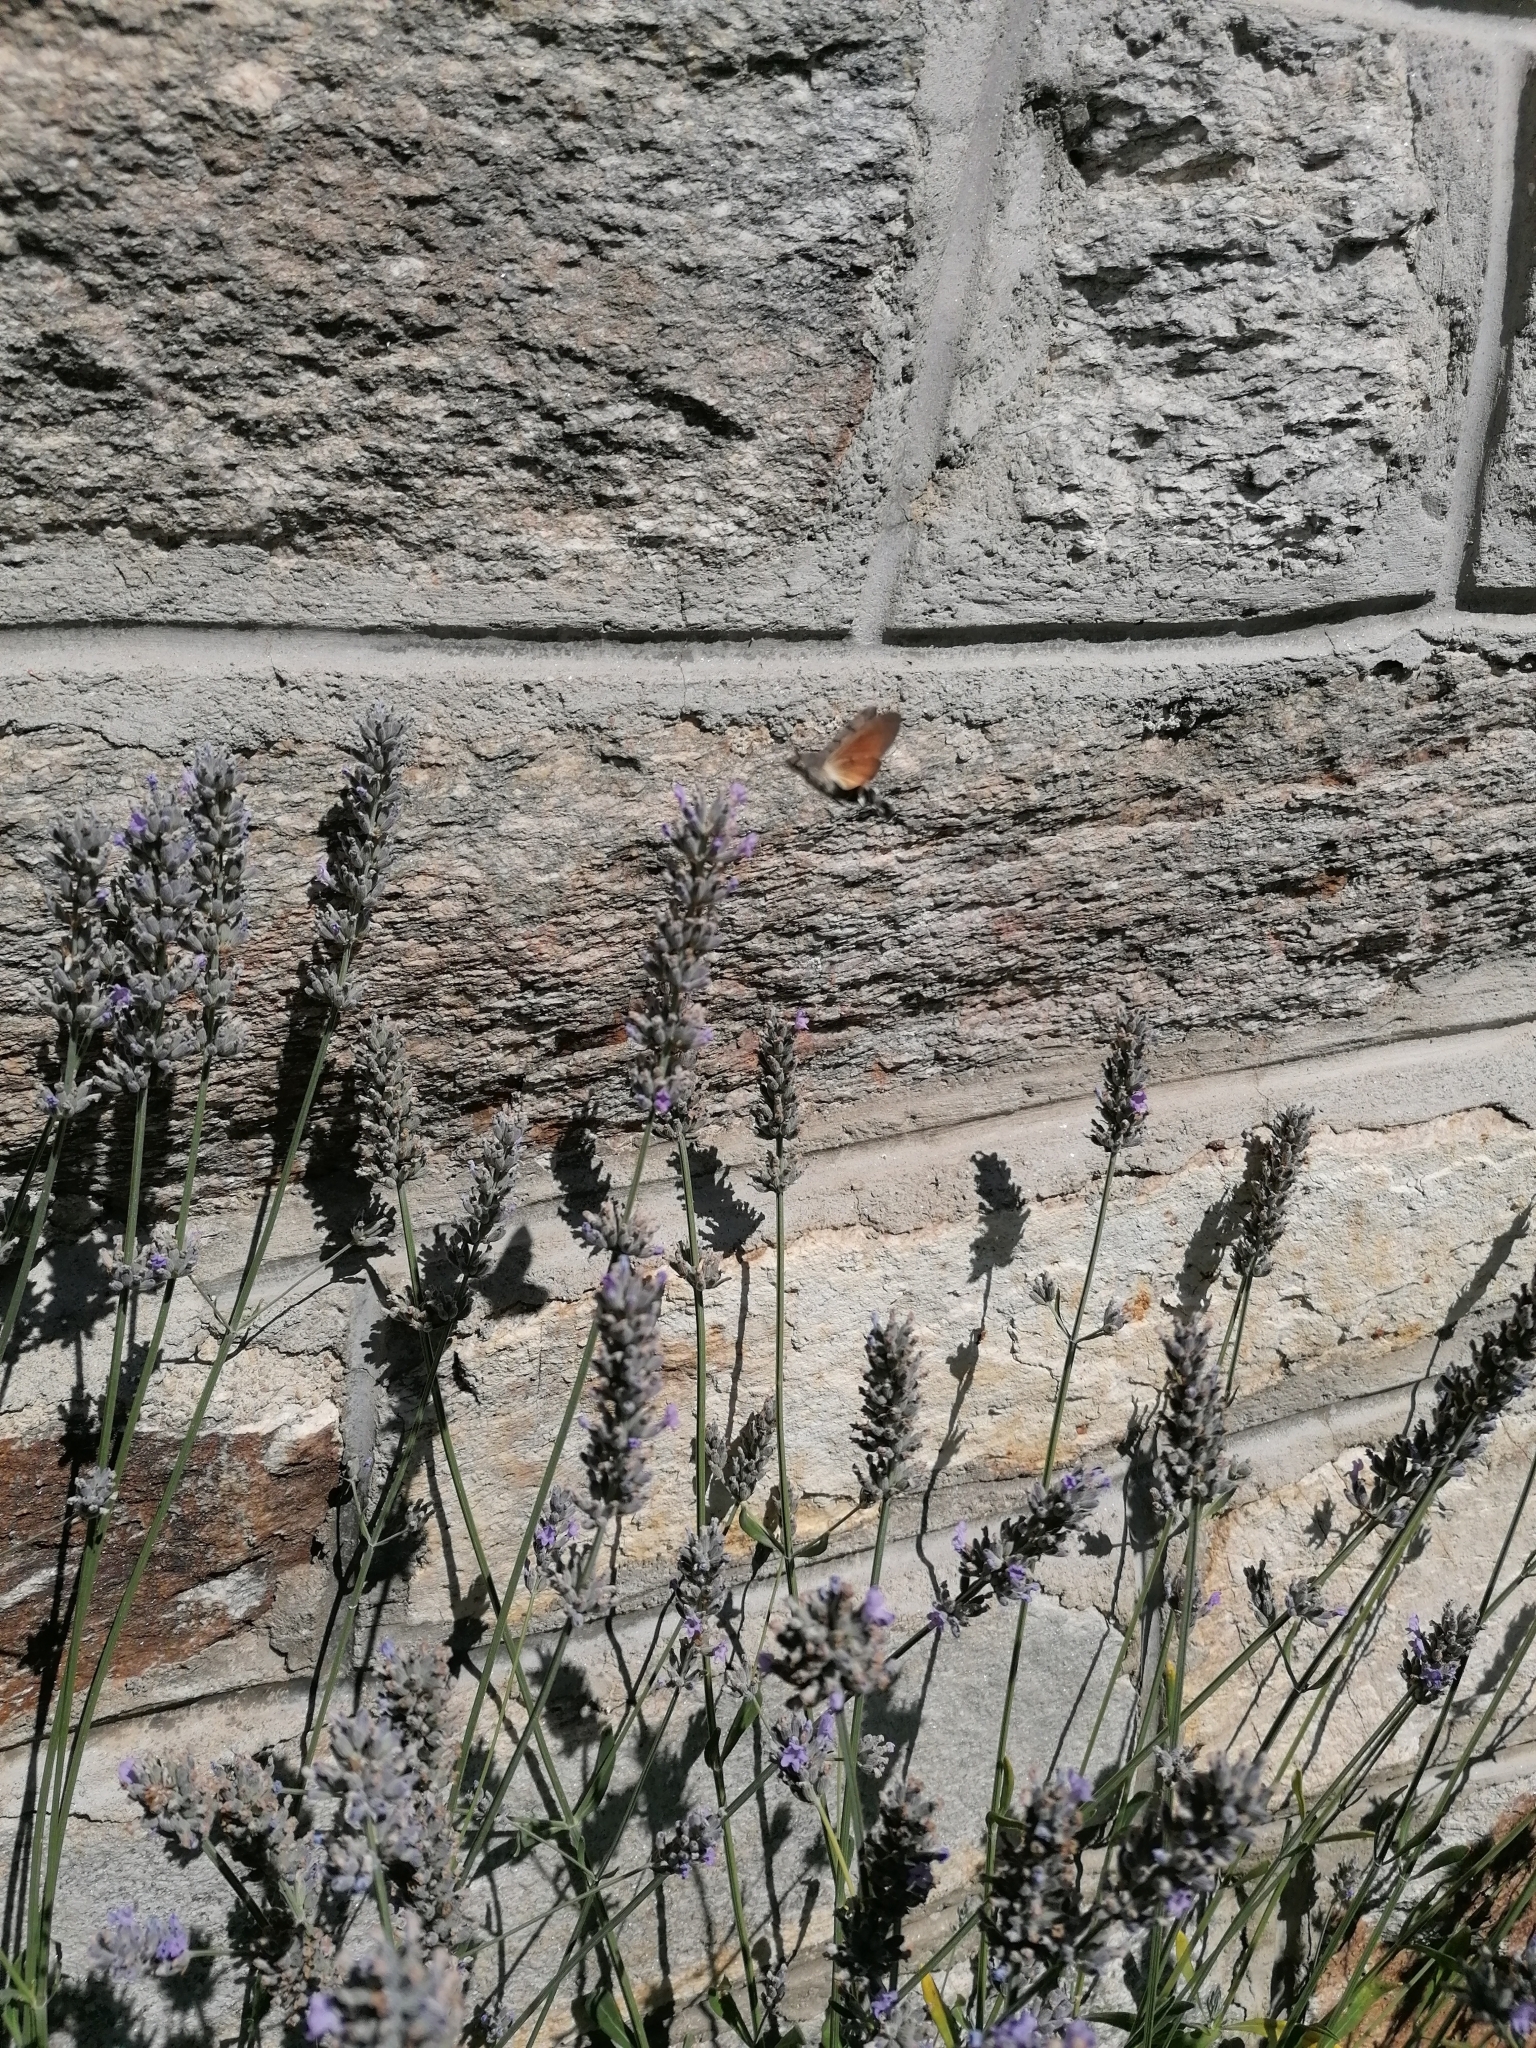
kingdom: Animalia
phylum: Arthropoda
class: Insecta
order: Lepidoptera
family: Sphingidae
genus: Macroglossum
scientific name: Macroglossum stellatarum
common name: Humming-bird hawk-moth
